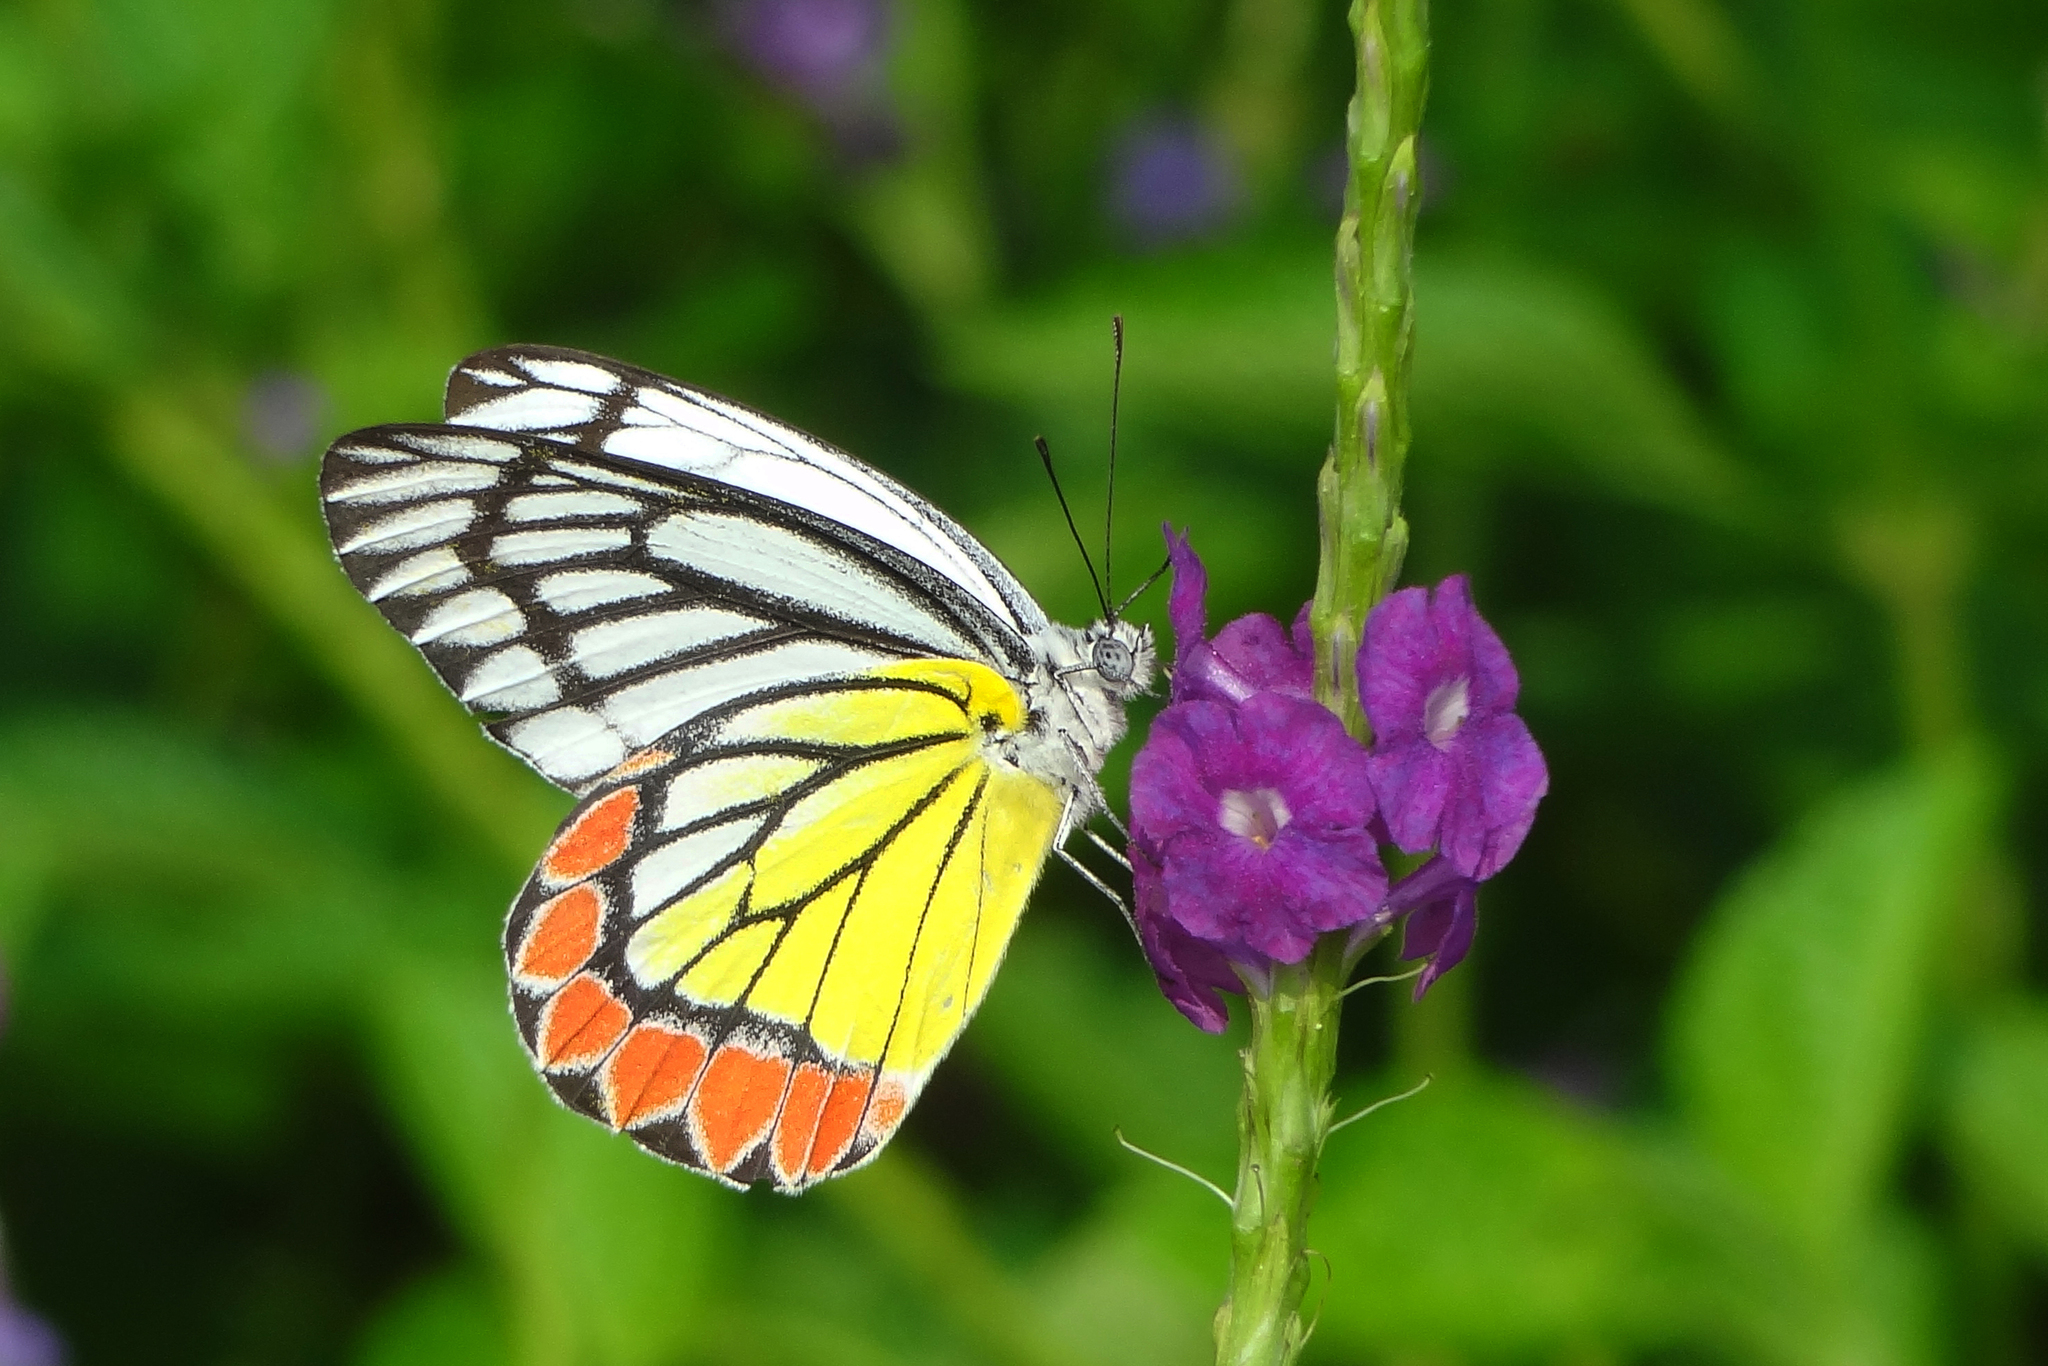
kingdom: Animalia
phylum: Arthropoda
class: Insecta
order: Lepidoptera
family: Pieridae
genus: Delias
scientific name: Delias eucharis
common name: Common jezebel
